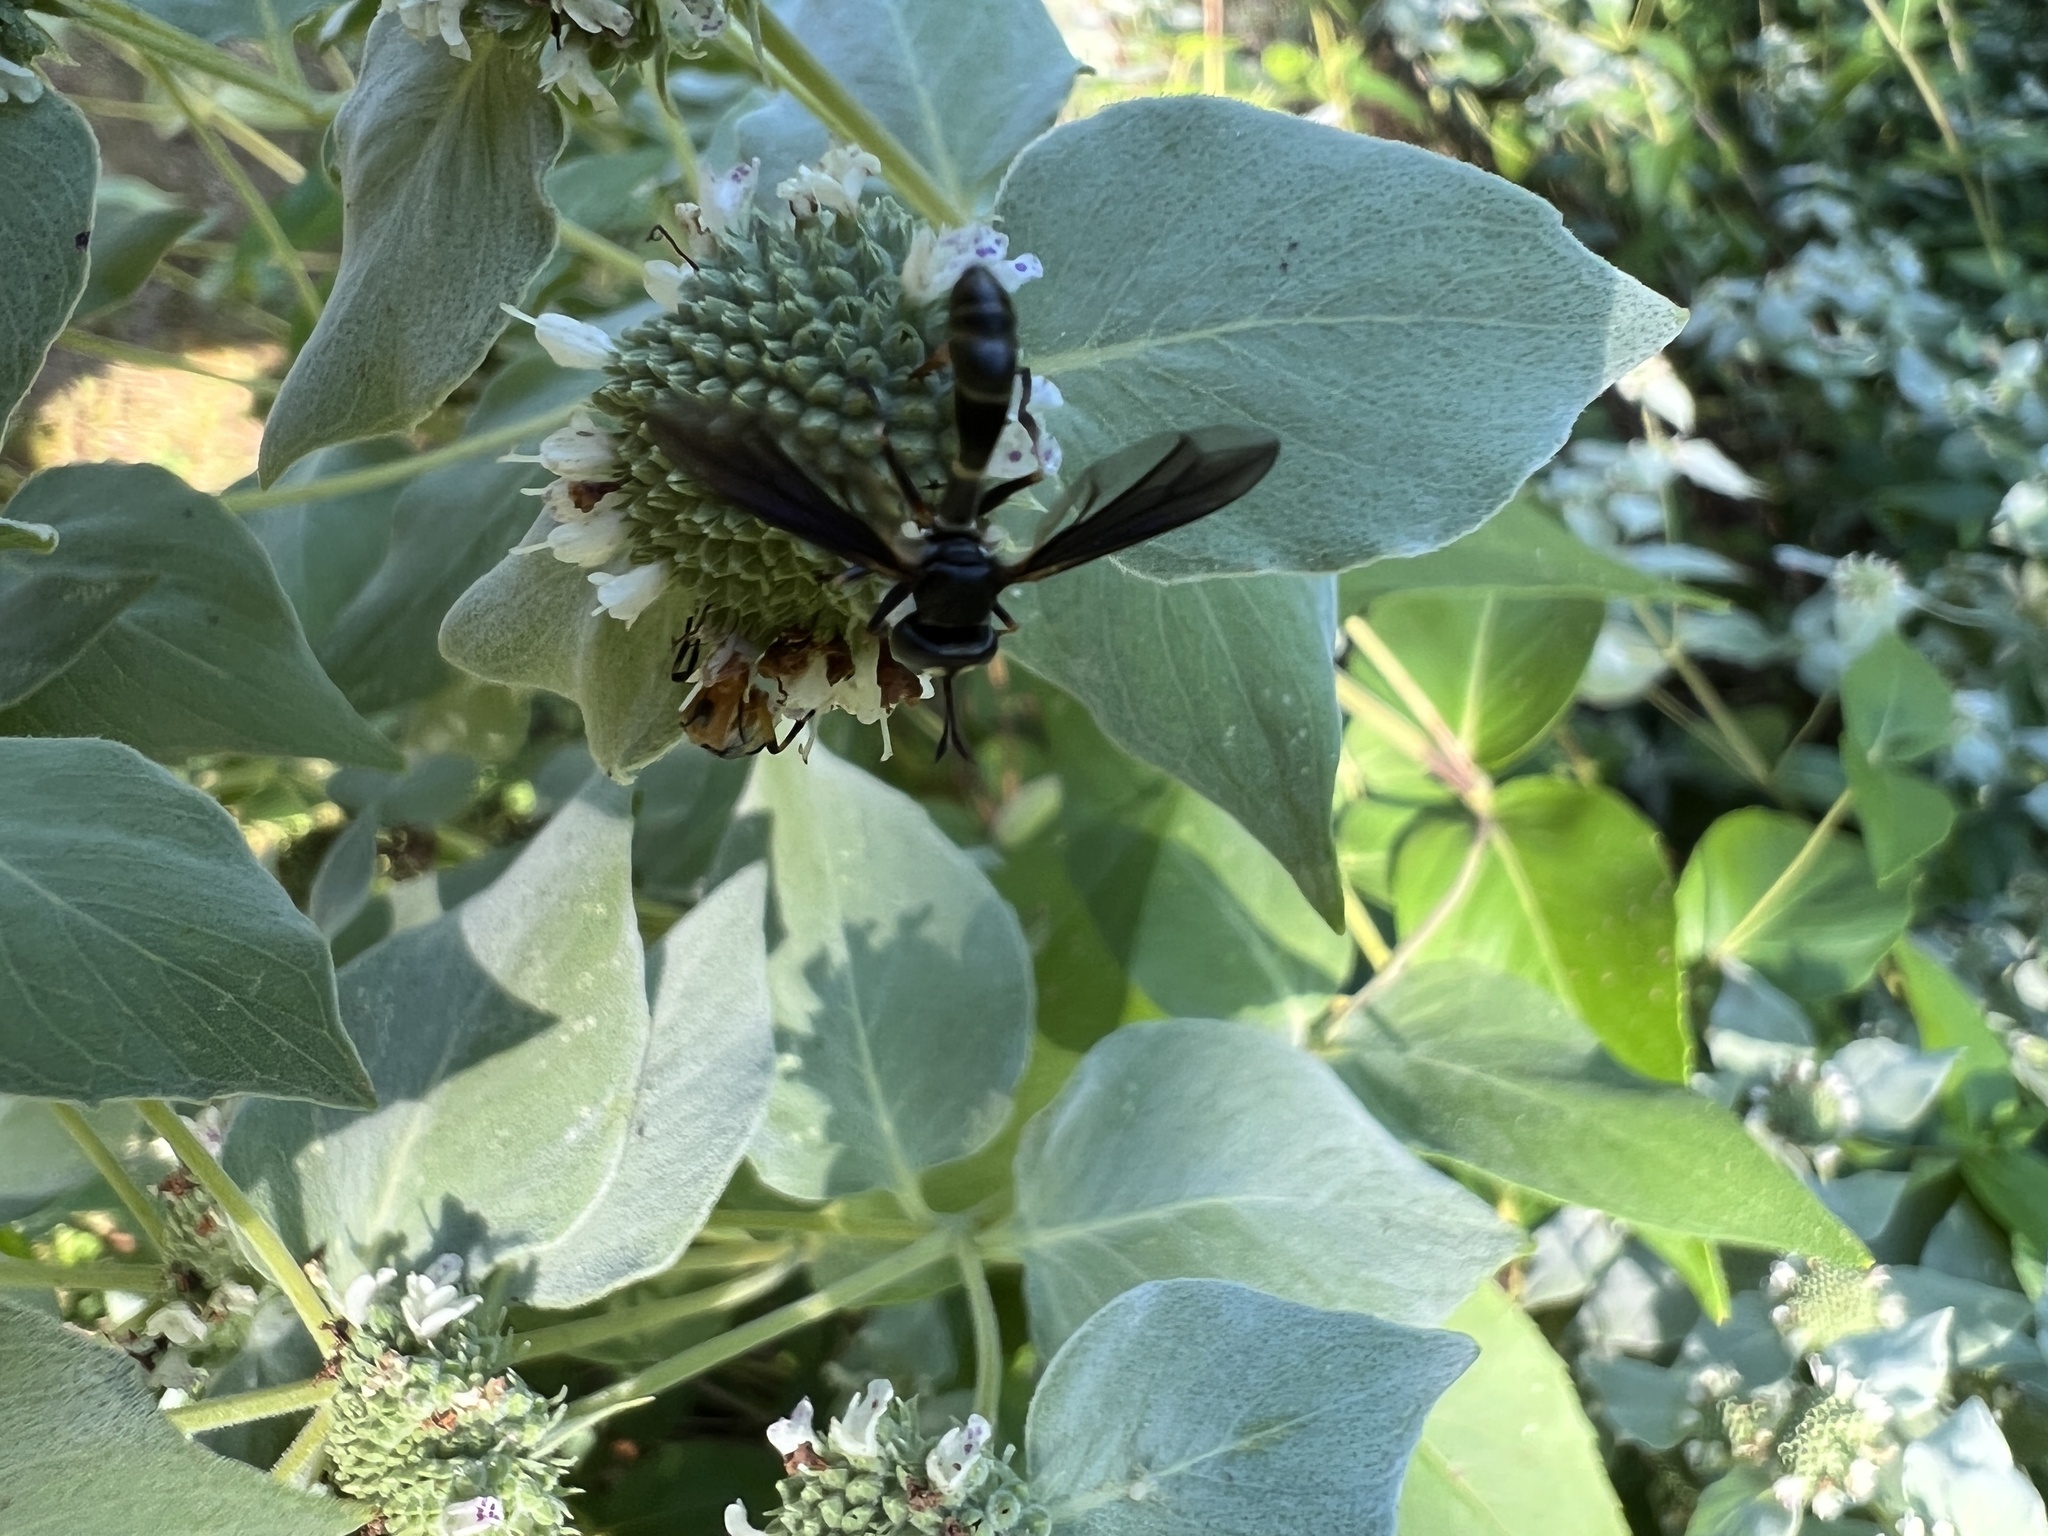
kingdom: Animalia
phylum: Arthropoda
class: Insecta
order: Diptera
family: Conopidae
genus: Physocephala
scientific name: Physocephala tibialis
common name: Common eastern physocephala
